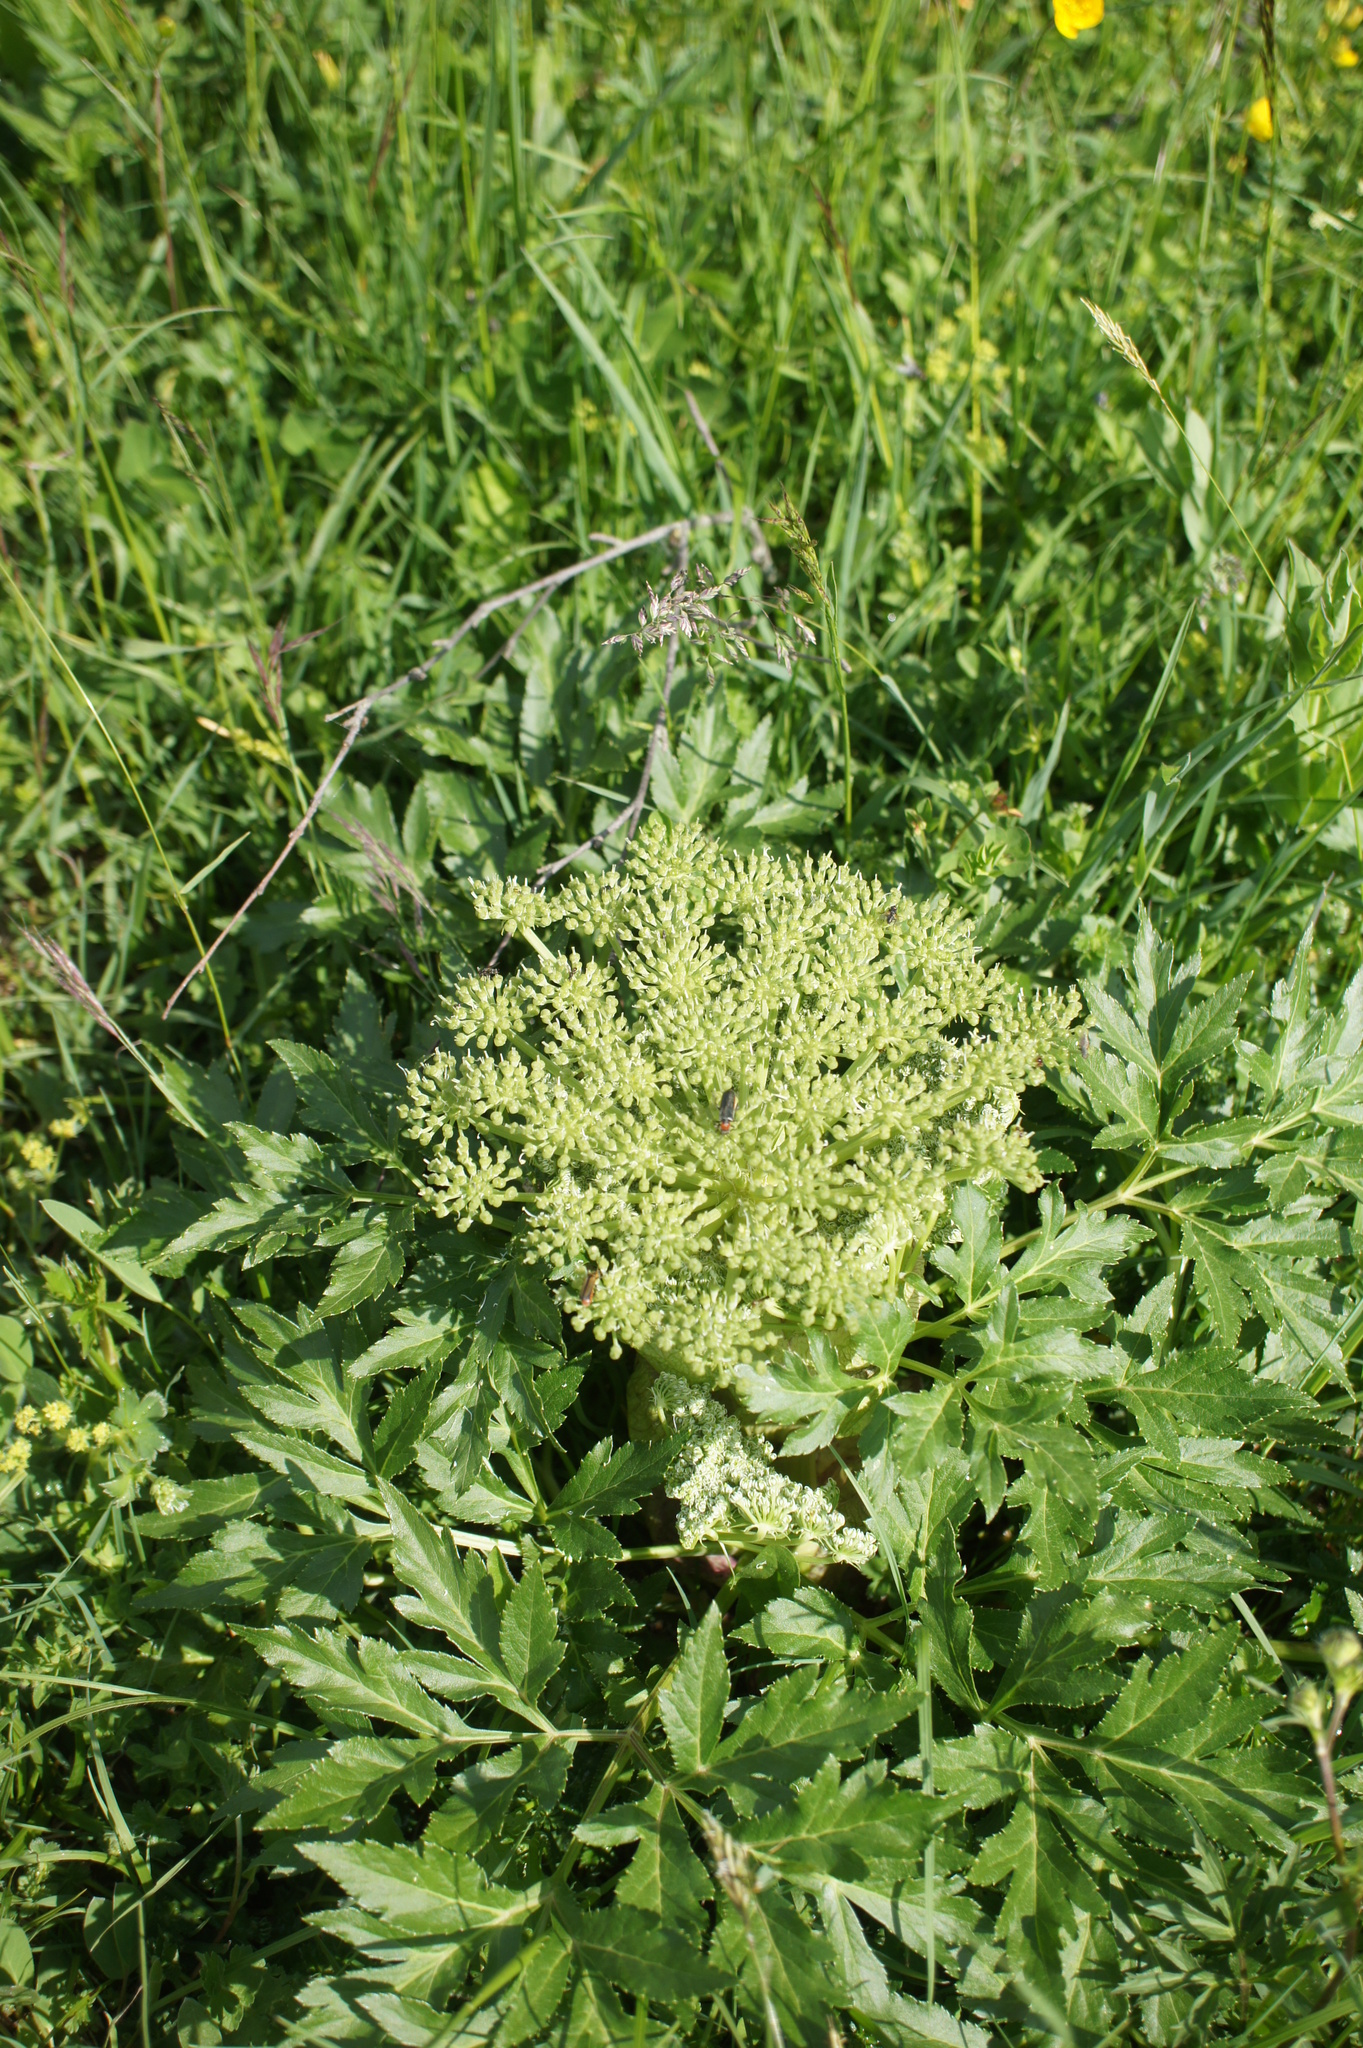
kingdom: Plantae
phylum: Tracheophyta
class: Magnoliopsida
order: Apiales
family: Apiaceae
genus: Agasyllis
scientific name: Agasyllis latifolia
